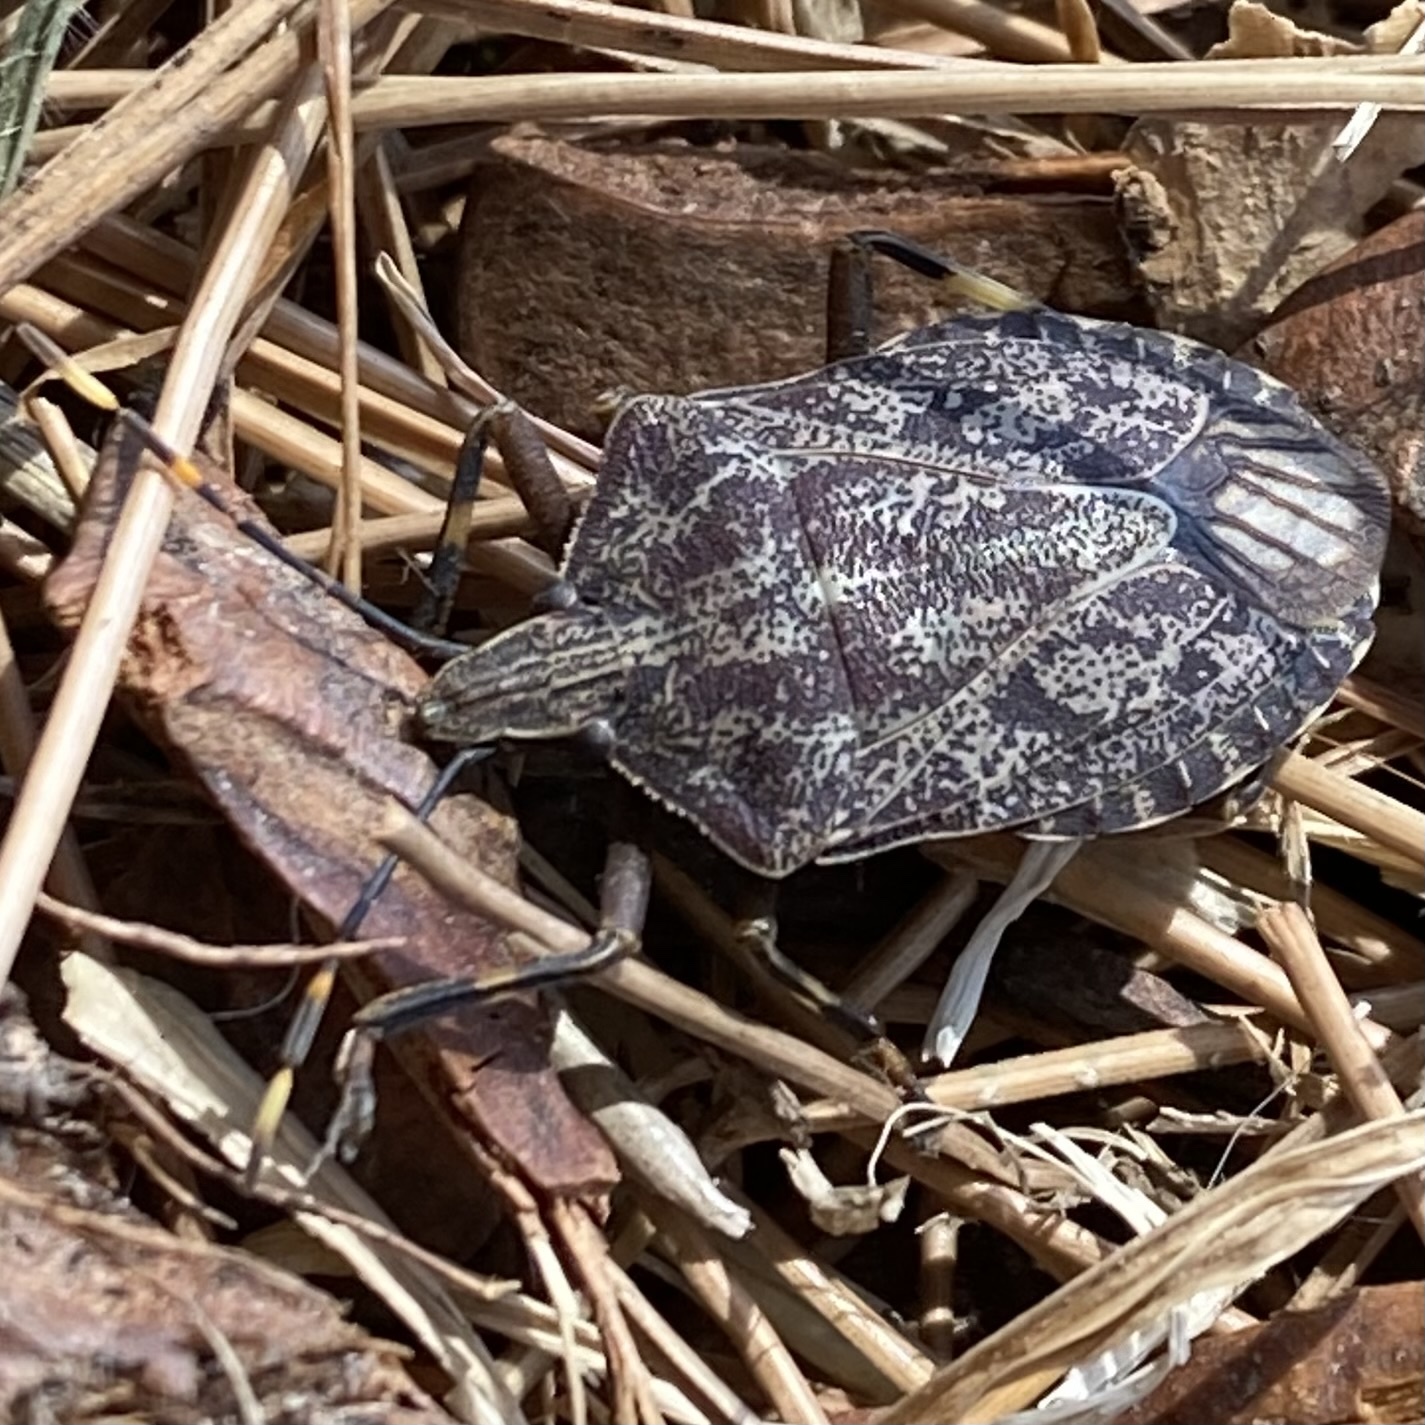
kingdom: Animalia
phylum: Arthropoda
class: Insecta
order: Hemiptera
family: Pentatomidae
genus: Coenomorpha
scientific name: Coenomorpha nervosa
